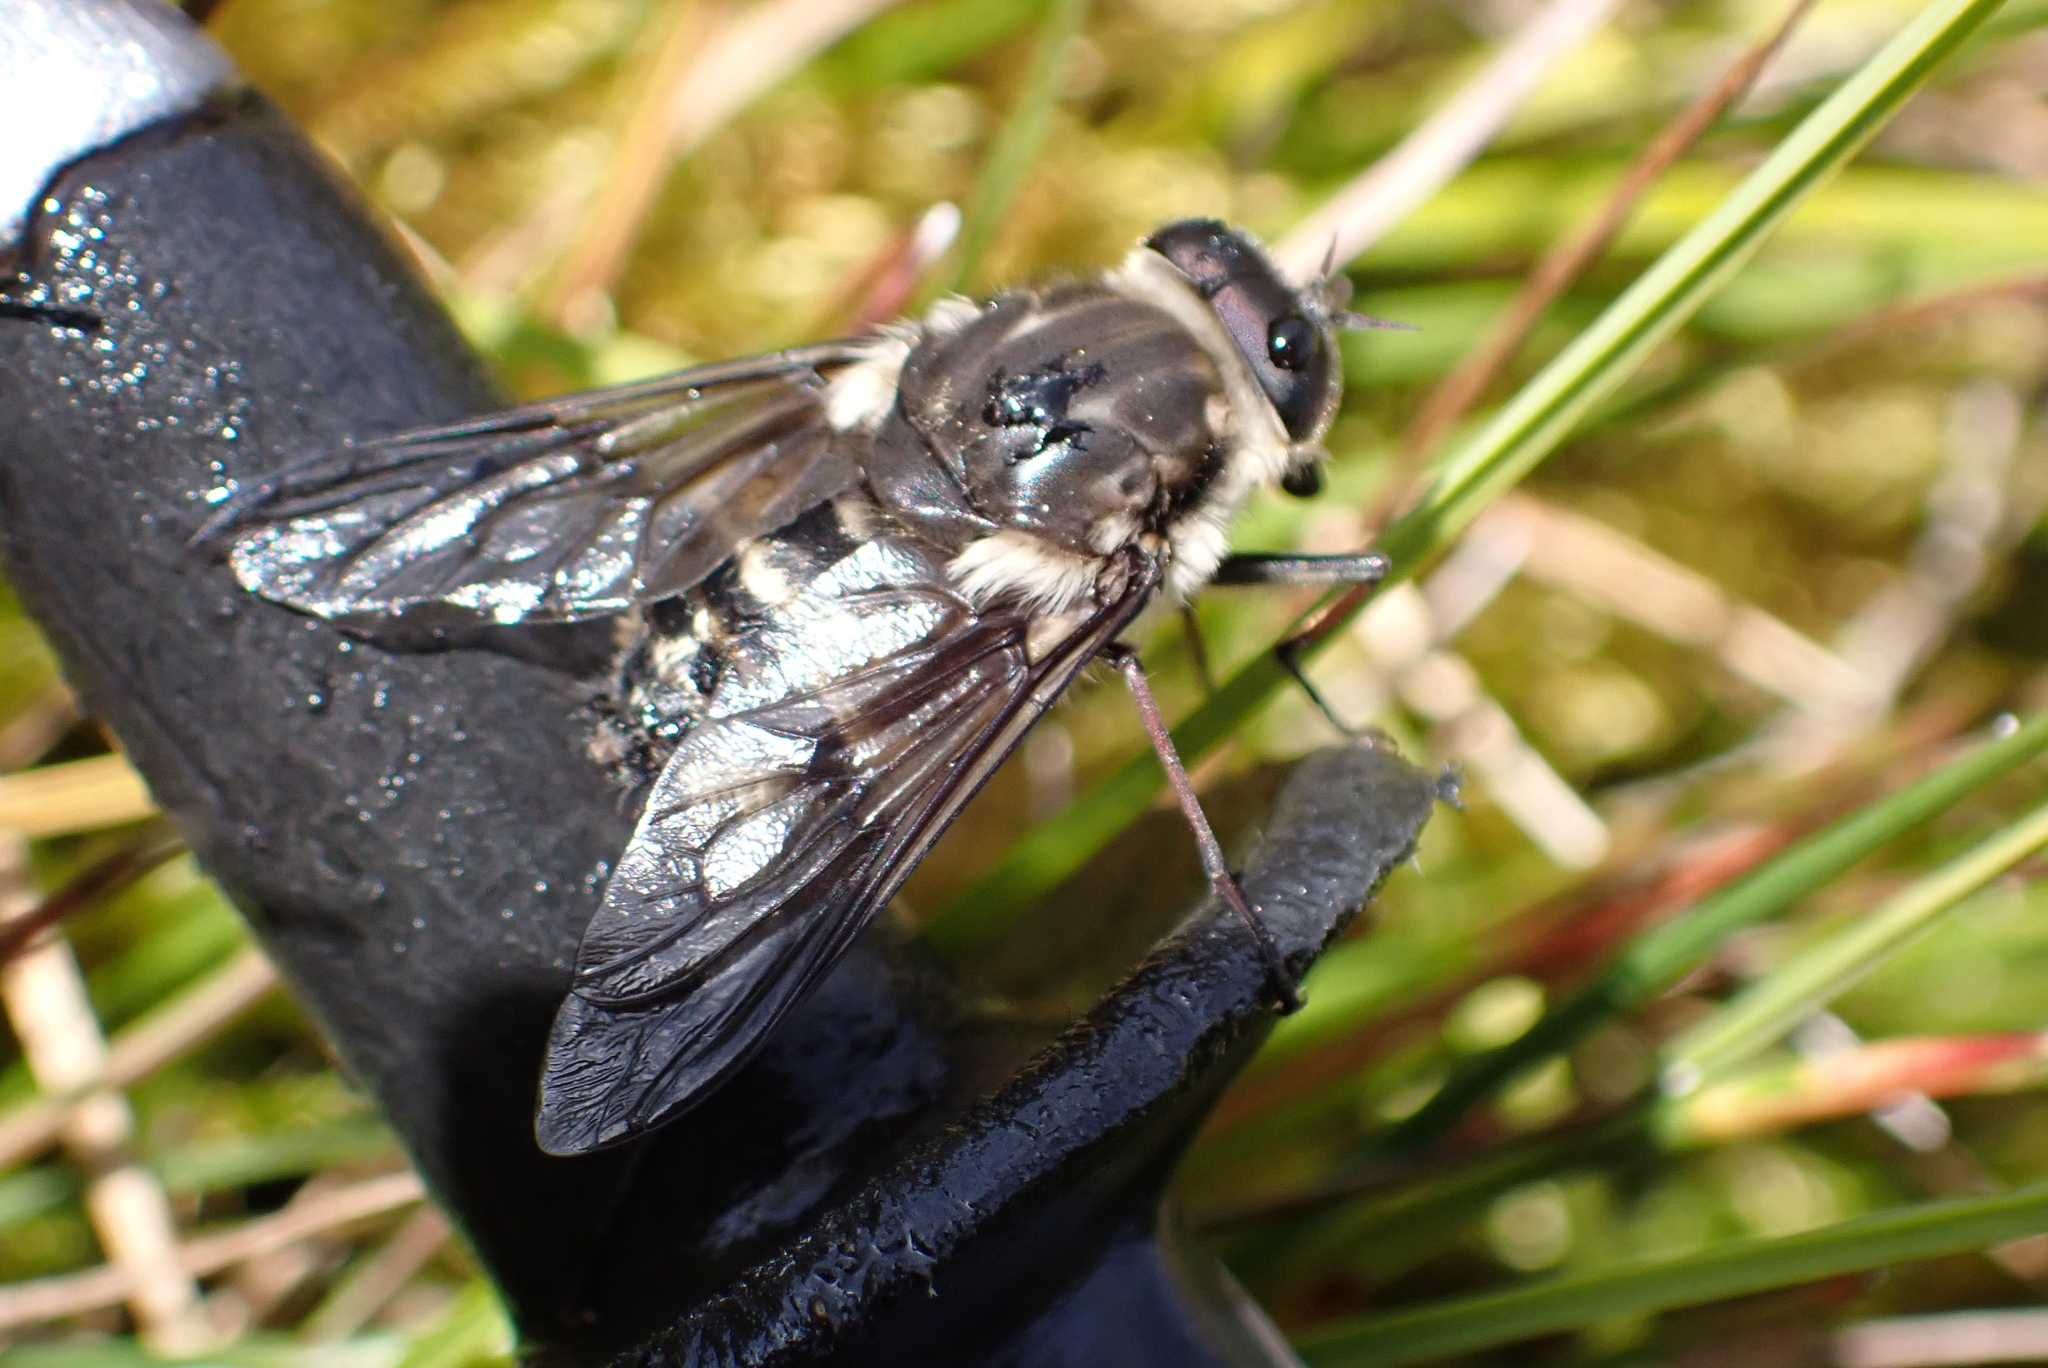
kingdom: Animalia
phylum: Arthropoda
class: Insecta
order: Diptera
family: Tabanidae
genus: Scaptia
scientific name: Scaptia
